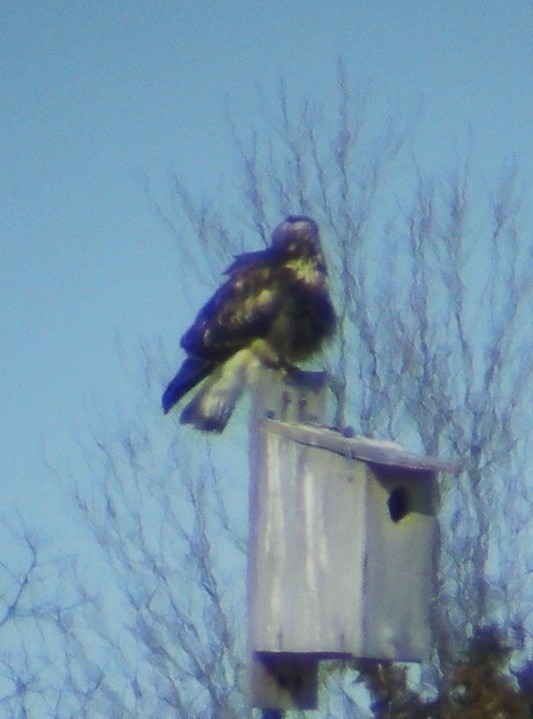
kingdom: Animalia
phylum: Chordata
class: Aves
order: Accipitriformes
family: Accipitridae
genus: Buteo
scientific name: Buteo lagopus
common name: Rough-legged buzzard
